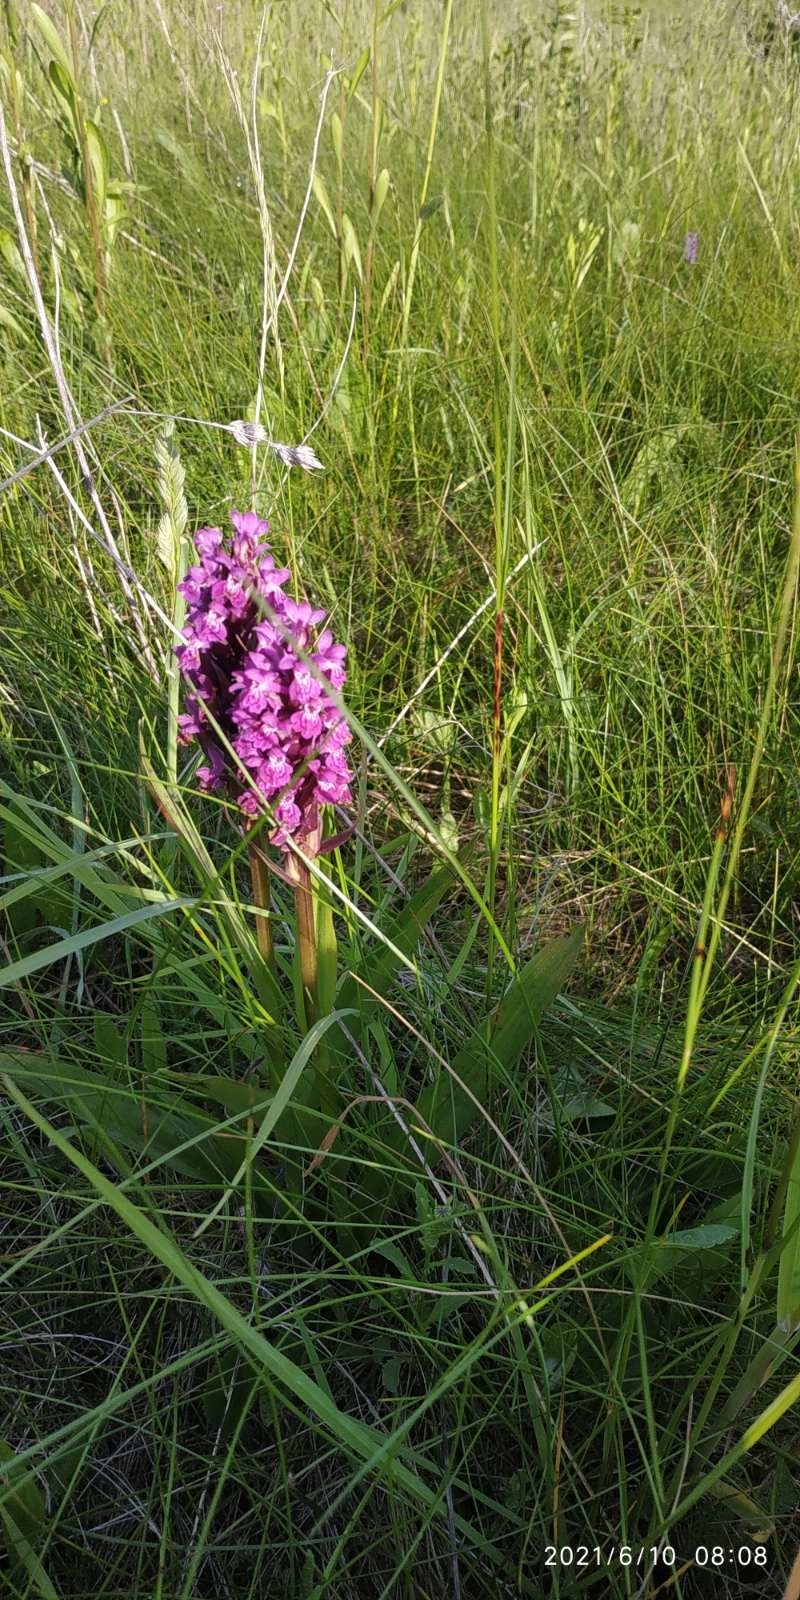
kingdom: Plantae
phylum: Tracheophyta
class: Liliopsida
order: Asparagales
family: Orchidaceae
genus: Dactylorhiza
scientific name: Dactylorhiza incarnata
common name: Early marsh-orchid
